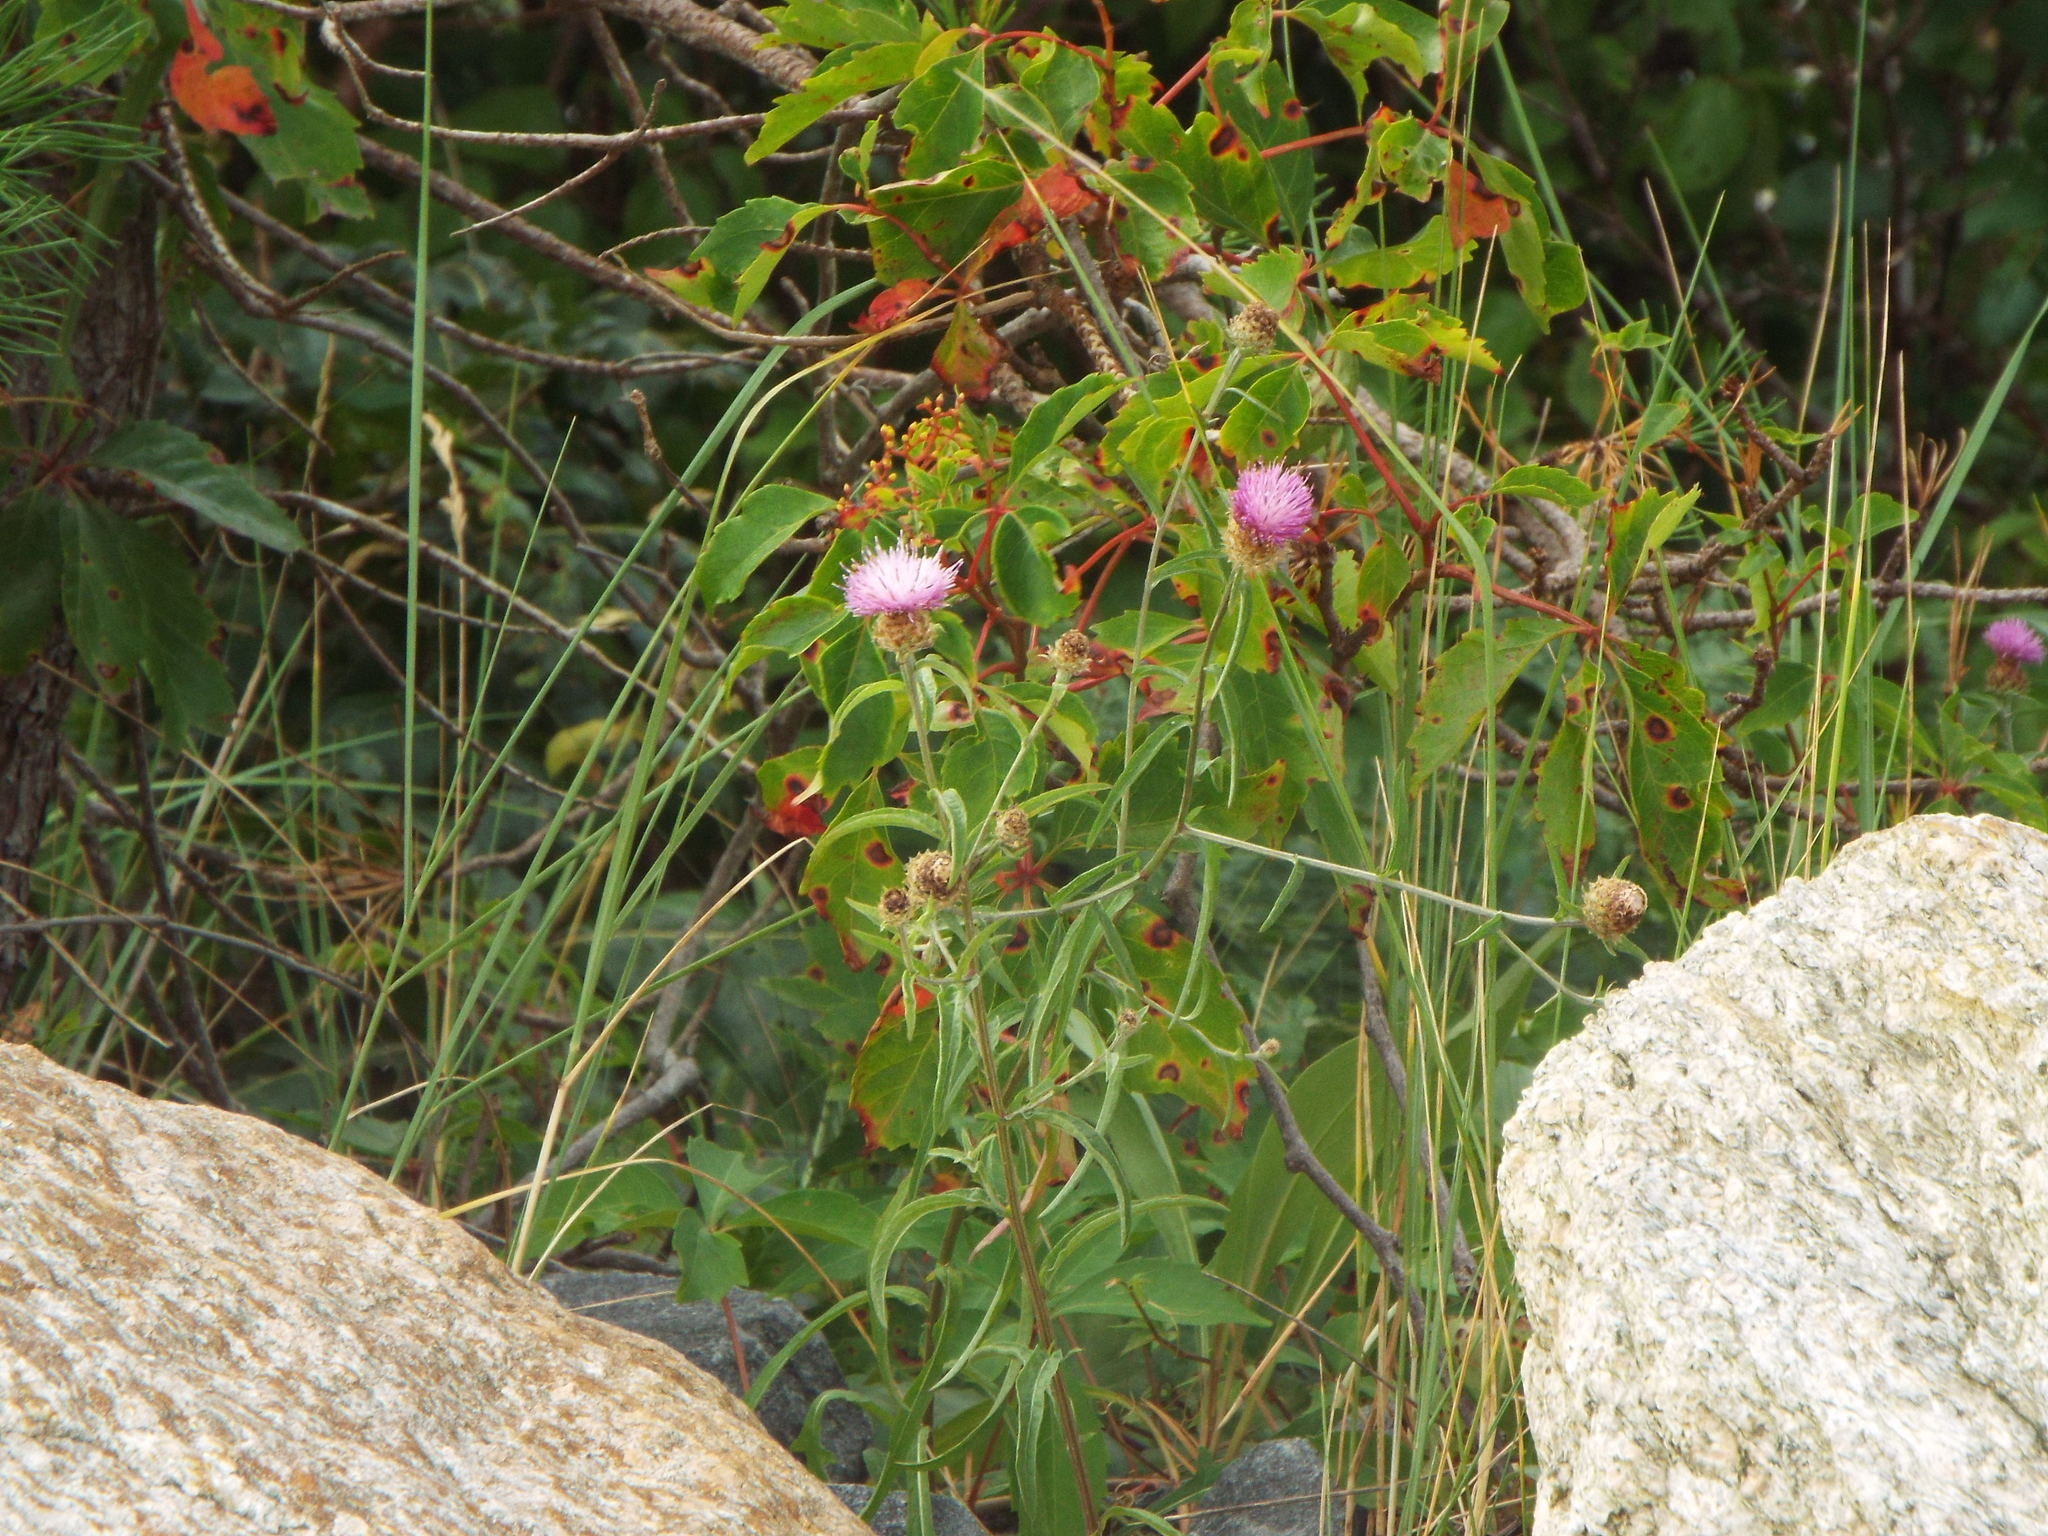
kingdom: Plantae
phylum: Tracheophyta
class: Magnoliopsida
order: Asterales
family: Asteraceae
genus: Centaurea
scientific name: Centaurea stoebe
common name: Spotted knapweed
